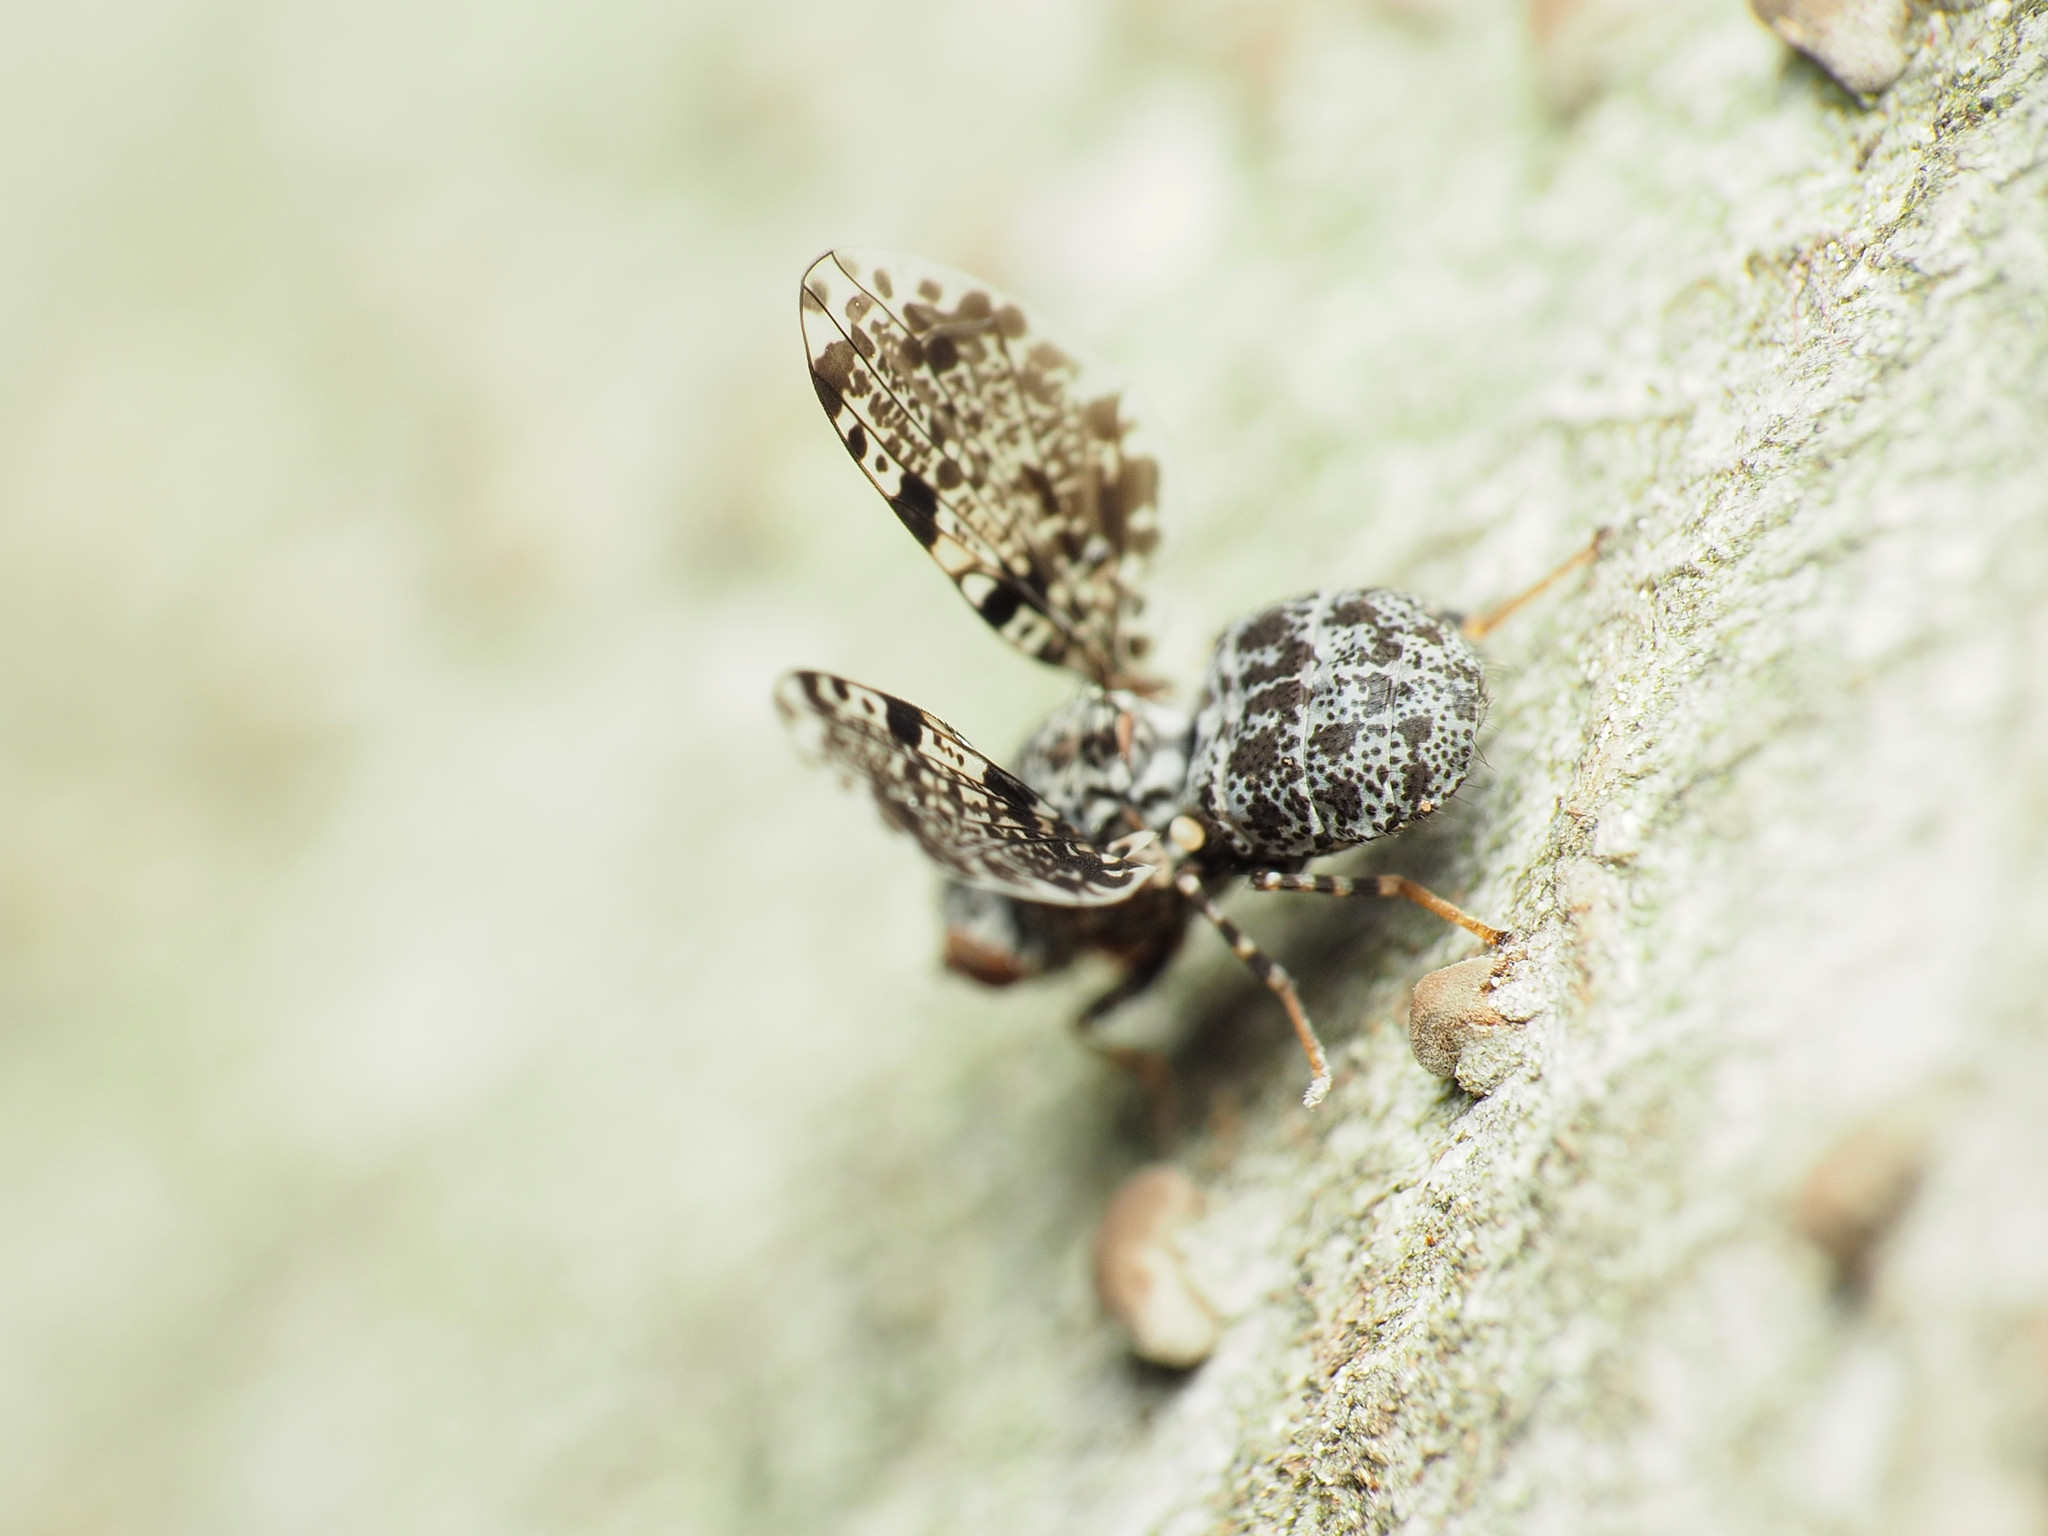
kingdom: Animalia
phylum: Arthropoda
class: Insecta
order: Diptera
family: Ulidiidae
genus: Callopistromyia
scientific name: Callopistromyia annulipes
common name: Peacock fly
